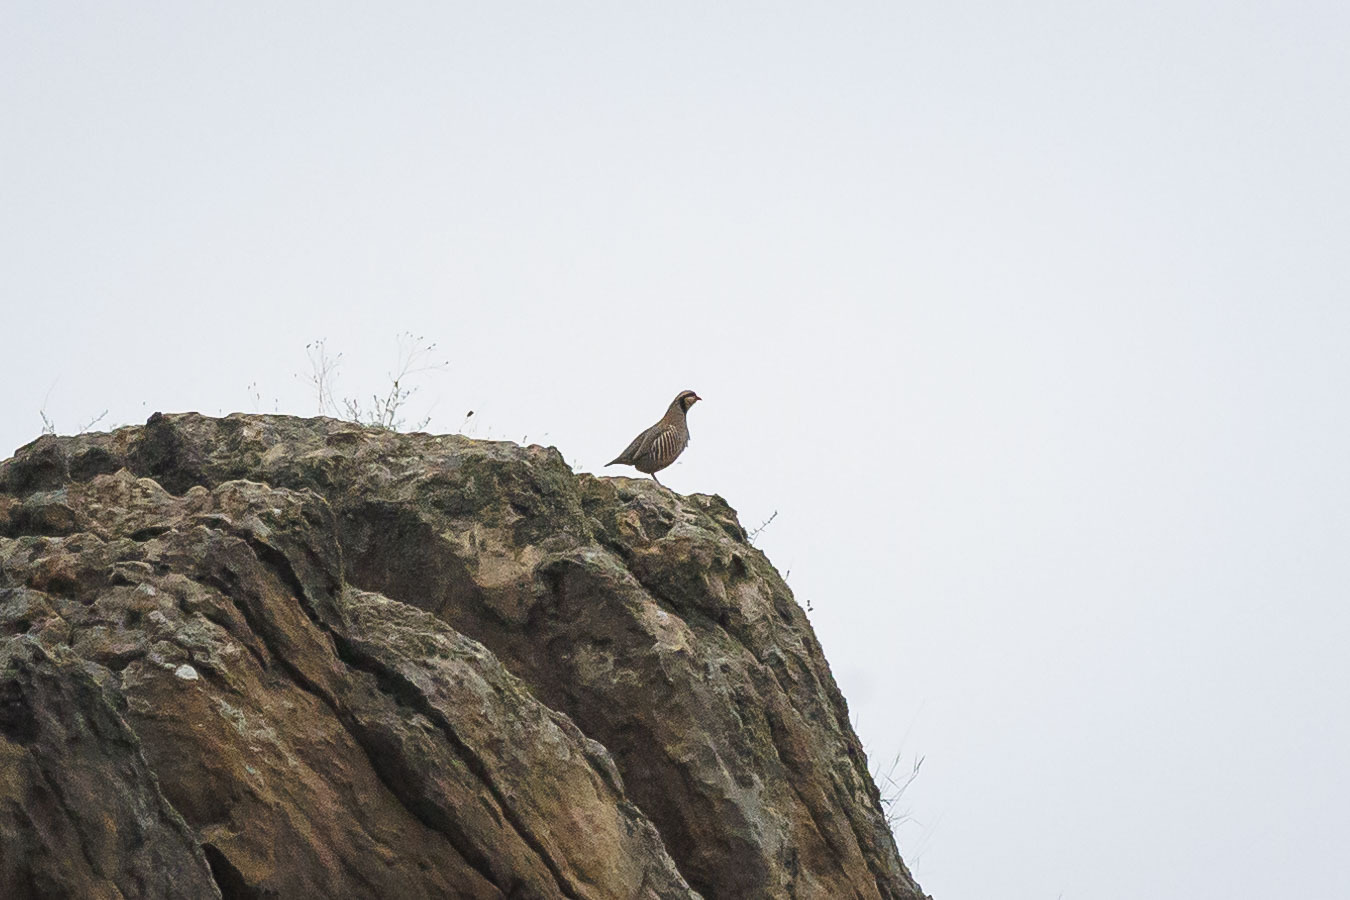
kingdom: Animalia
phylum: Chordata
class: Aves
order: Galliformes
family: Phasianidae
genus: Alectoris
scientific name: Alectoris chukar
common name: Chukar
